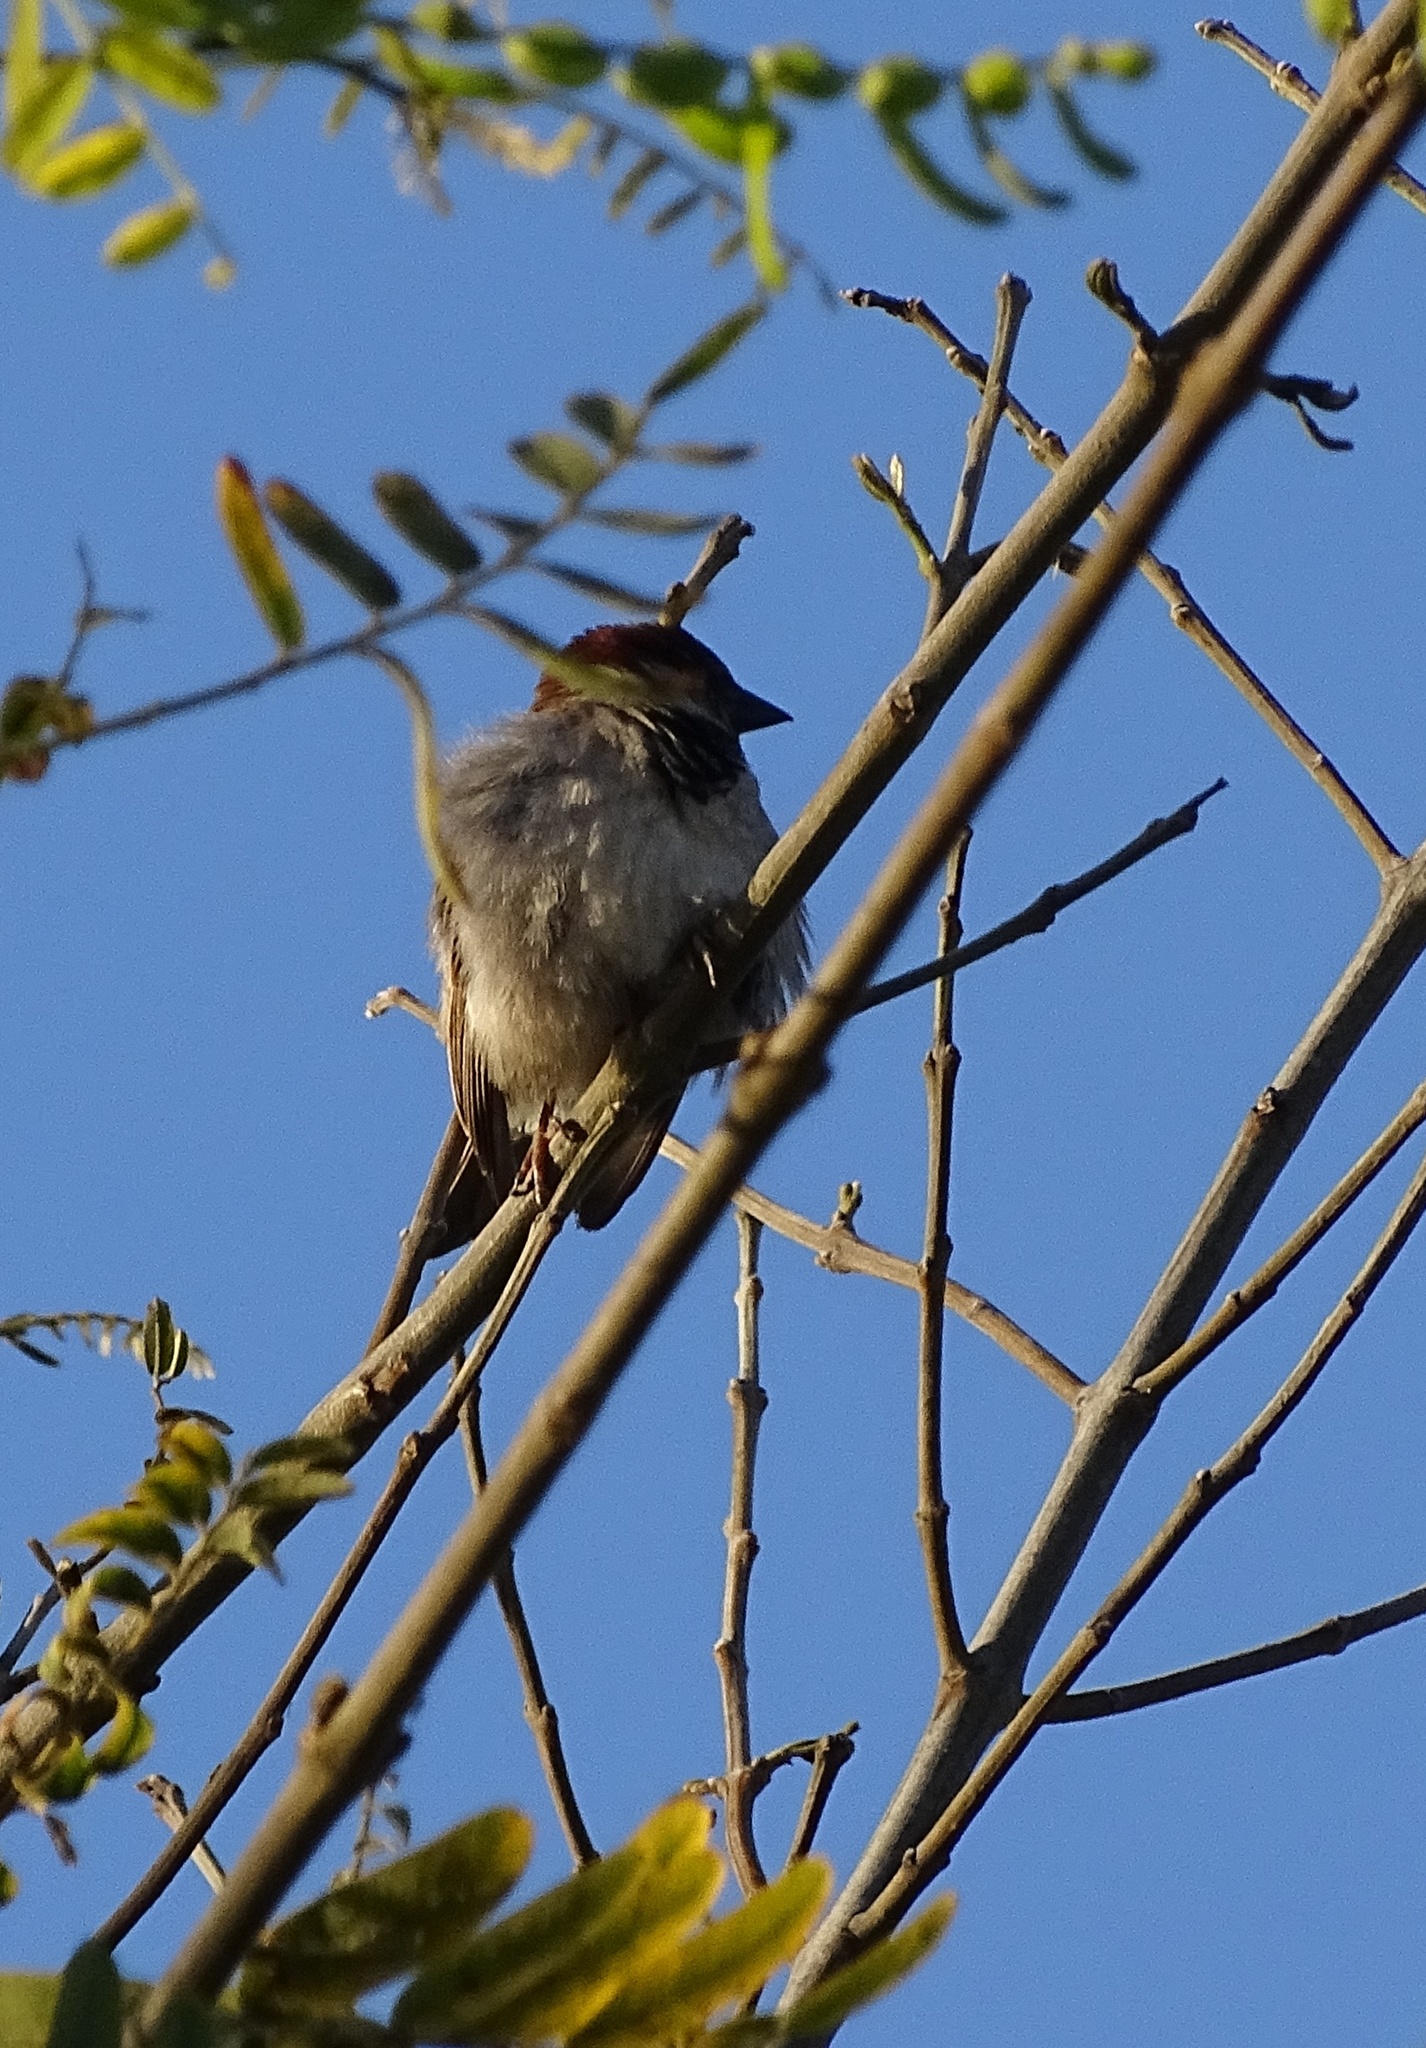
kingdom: Animalia
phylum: Chordata
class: Aves
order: Passeriformes
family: Passeridae
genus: Passer
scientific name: Passer domesticus
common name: House sparrow
